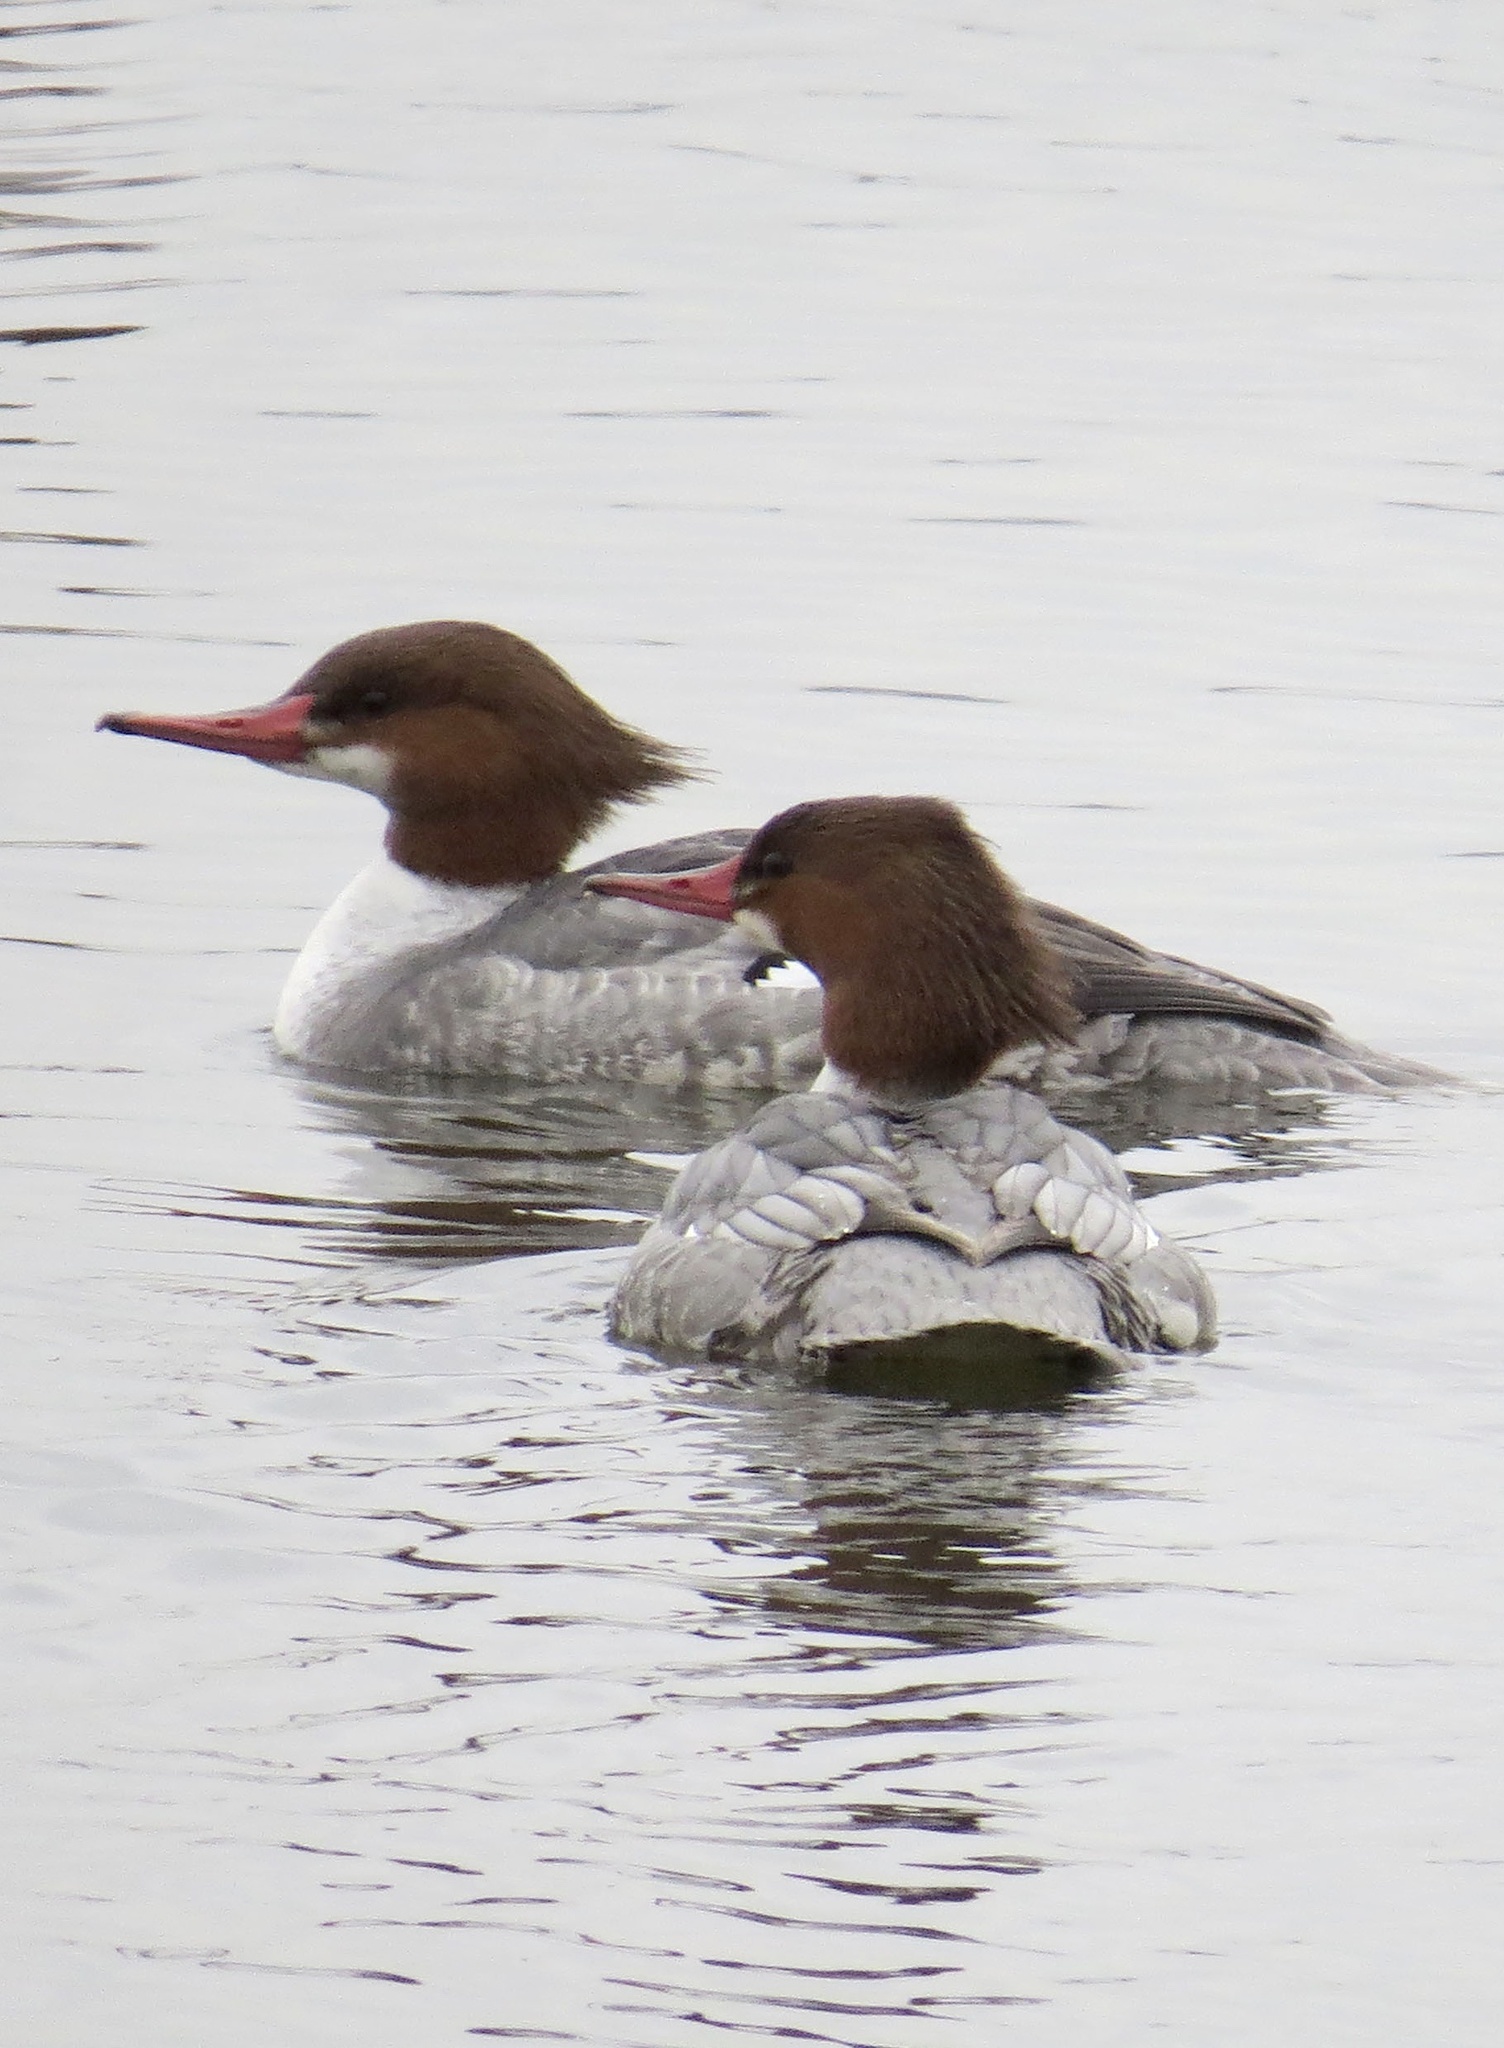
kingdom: Animalia
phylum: Chordata
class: Aves
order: Anseriformes
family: Anatidae
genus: Mergus
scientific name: Mergus merganser
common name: Common merganser
